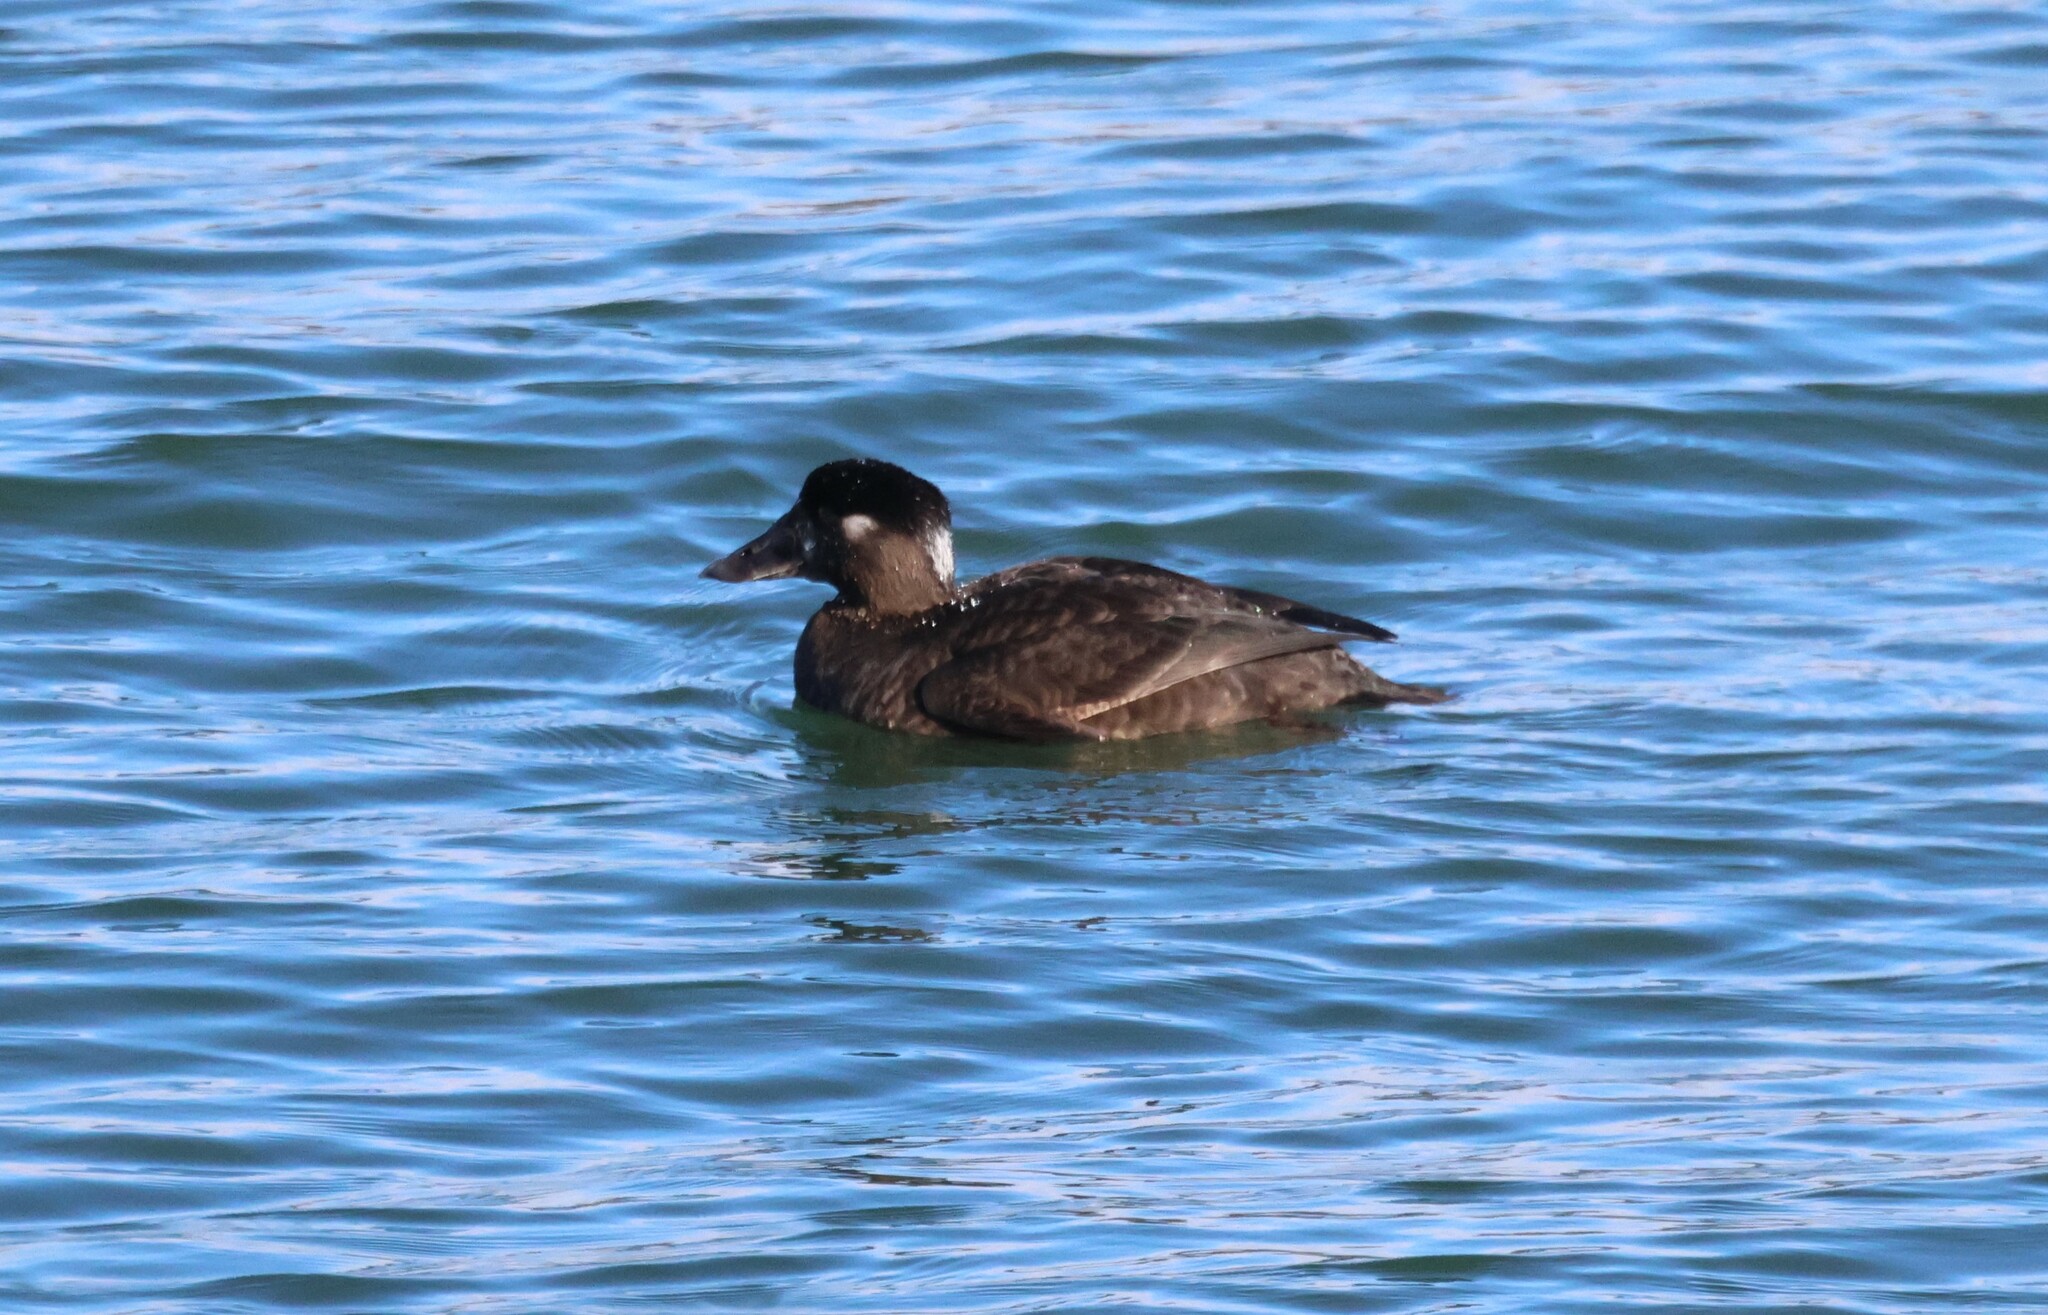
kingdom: Animalia
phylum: Chordata
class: Aves
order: Anseriformes
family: Anatidae
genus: Melanitta
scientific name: Melanitta perspicillata
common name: Surf scoter
